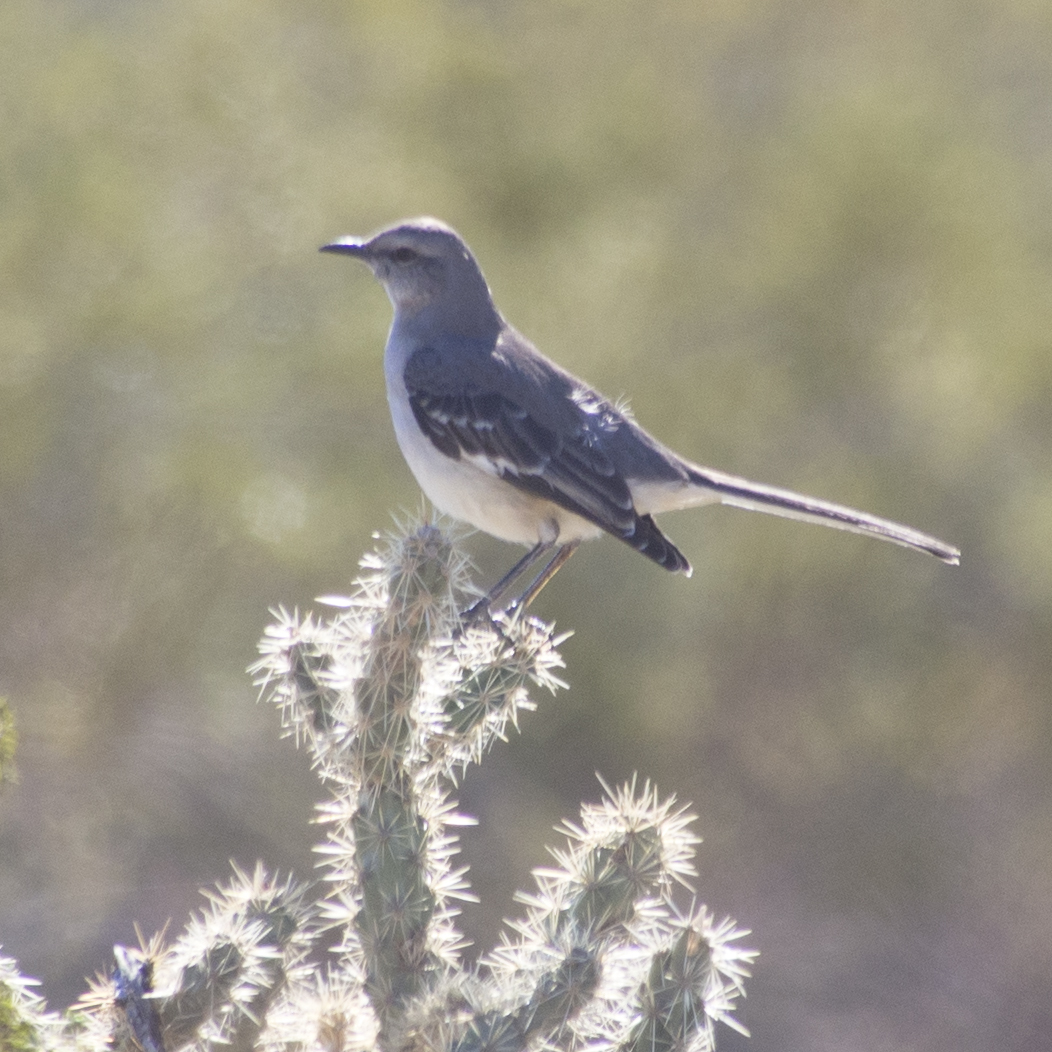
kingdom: Animalia
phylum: Chordata
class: Aves
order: Passeriformes
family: Mimidae
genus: Mimus
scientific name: Mimus polyglottos
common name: Northern mockingbird
